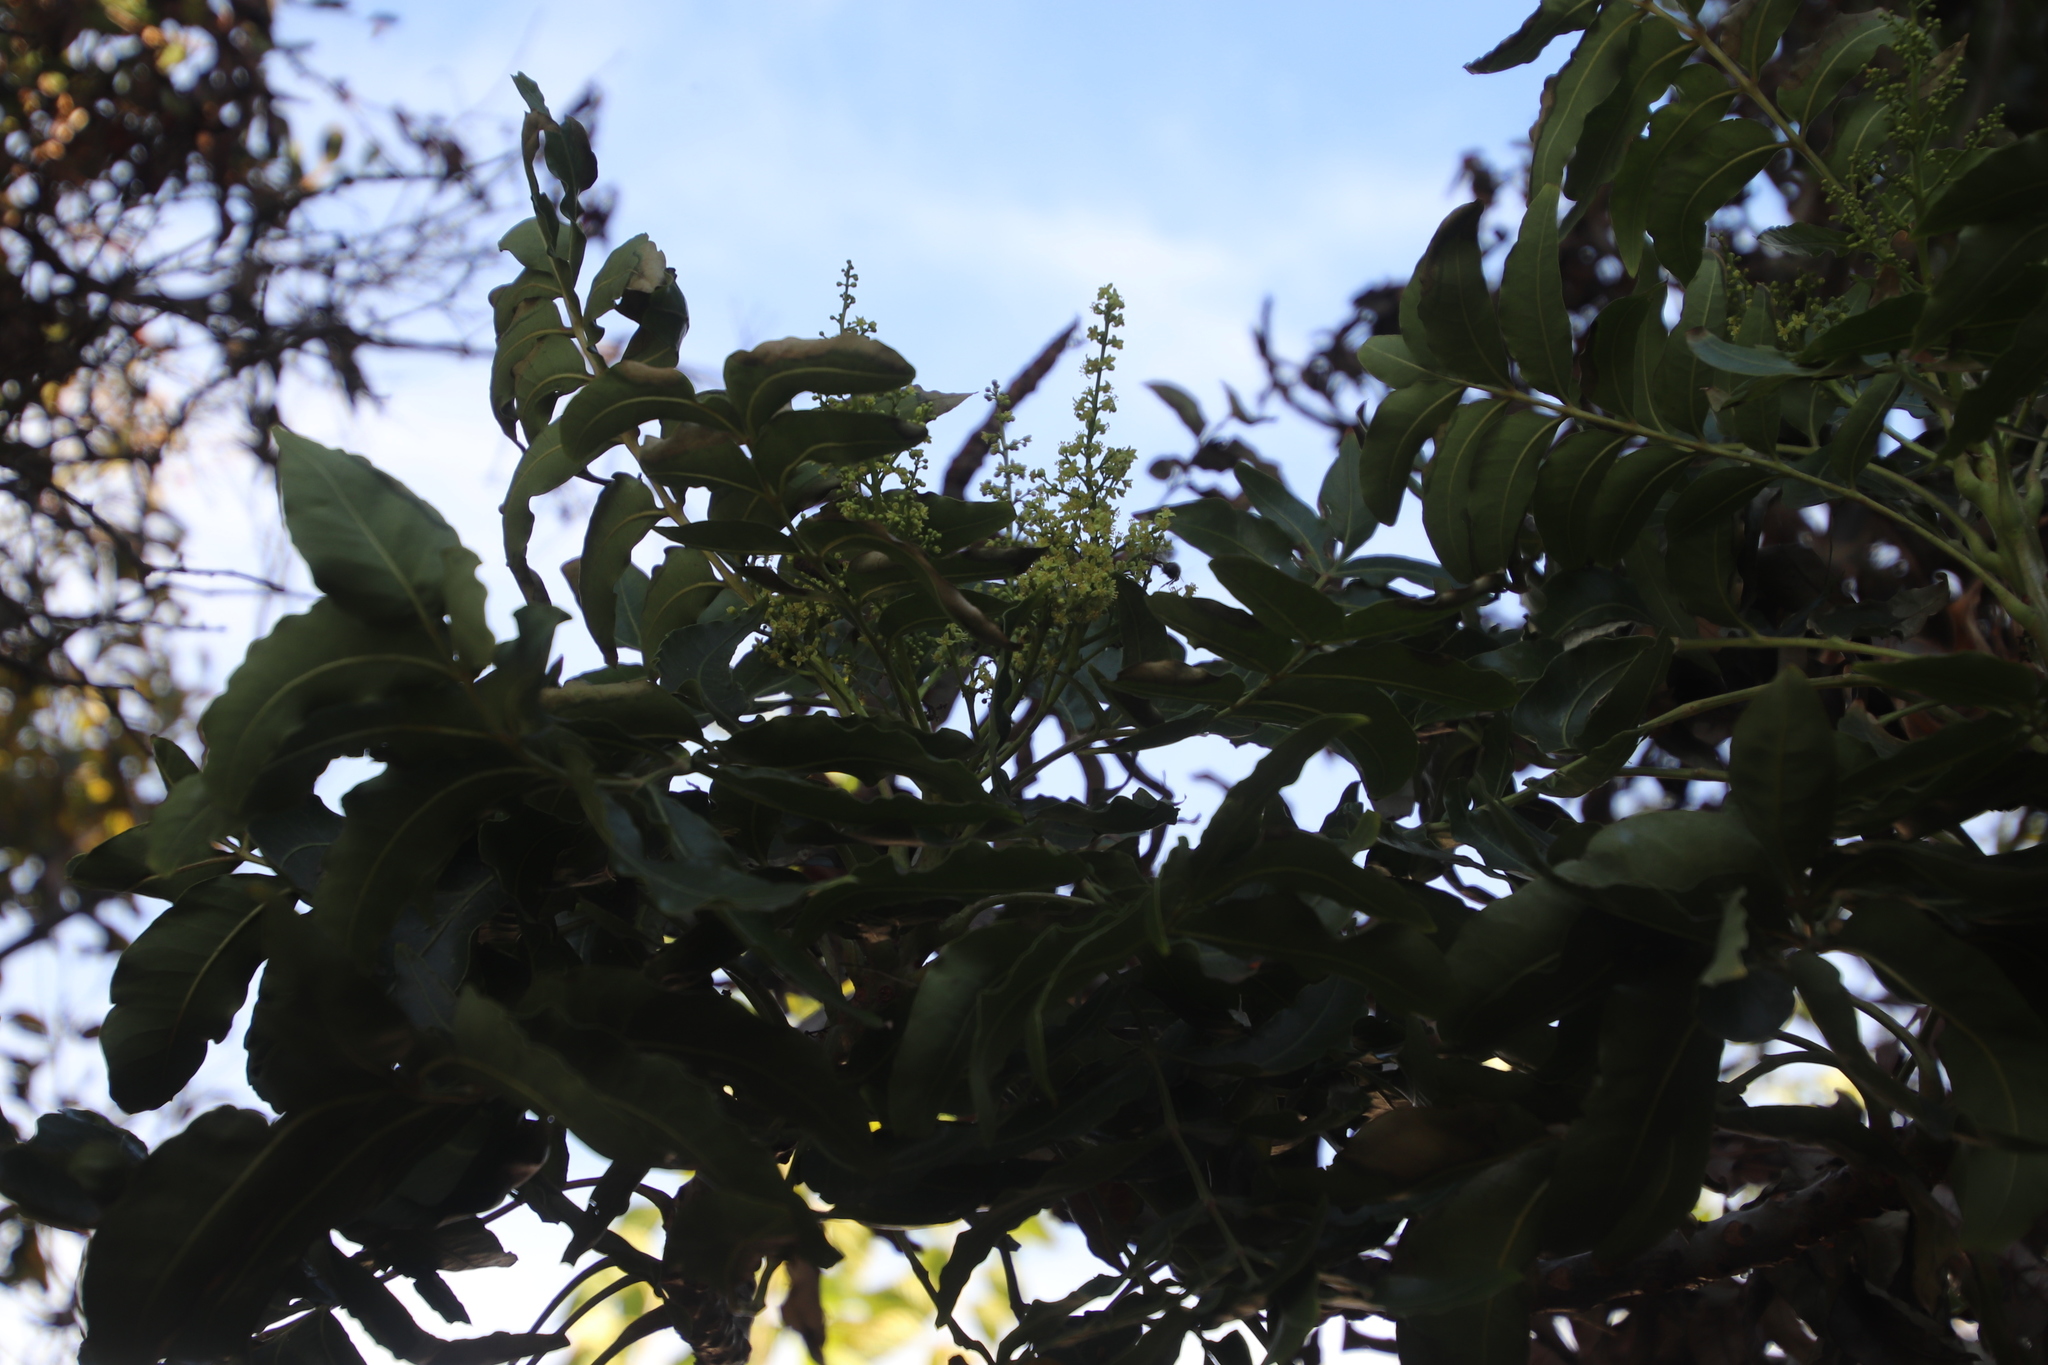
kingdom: Animalia
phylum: Arthropoda
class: Insecta
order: Hymenoptera
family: Apidae
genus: Apis
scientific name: Apis mellifera
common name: Honey bee
